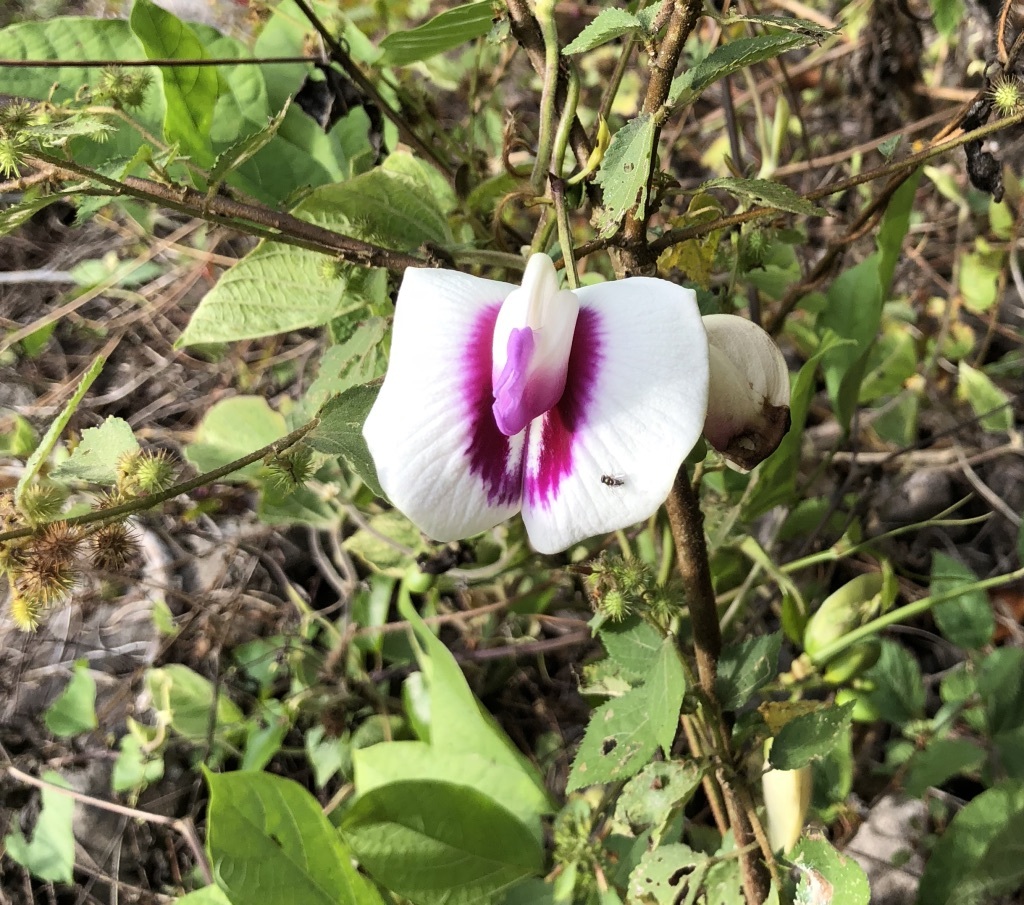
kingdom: Plantae
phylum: Tracheophyta
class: Magnoliopsida
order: Fabales
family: Fabaceae
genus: Centrosema
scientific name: Centrosema plumieri
